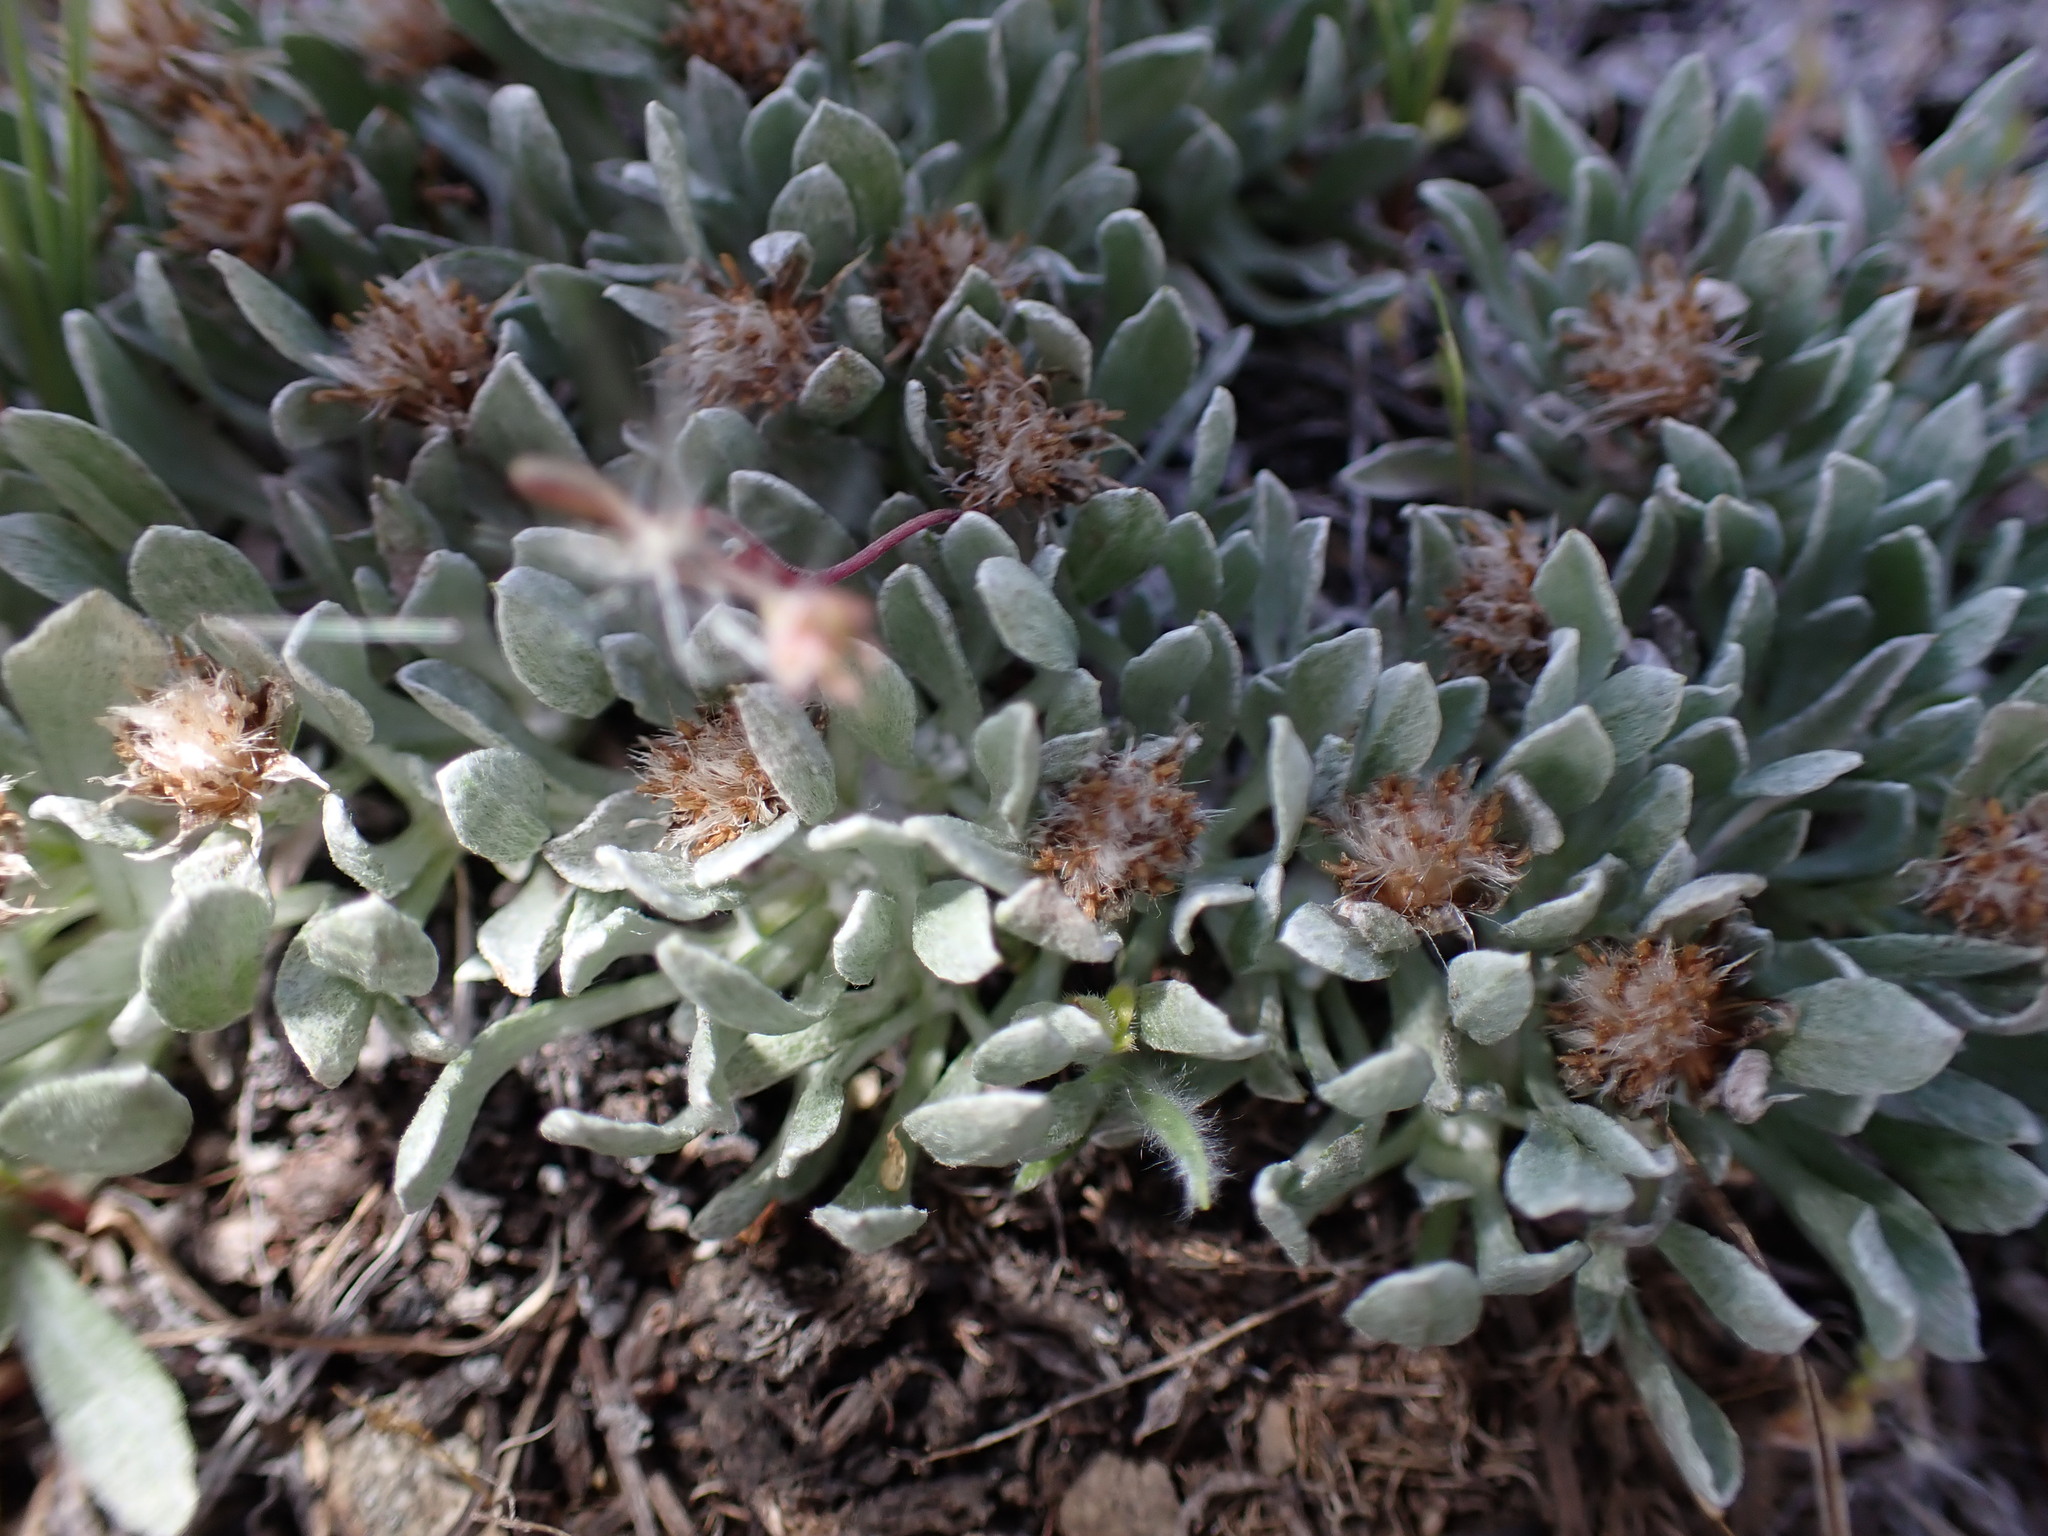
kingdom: Plantae
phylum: Tracheophyta
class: Magnoliopsida
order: Asterales
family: Asteraceae
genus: Antennaria
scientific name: Antennaria dimorpha
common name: Cushion pussytoes
